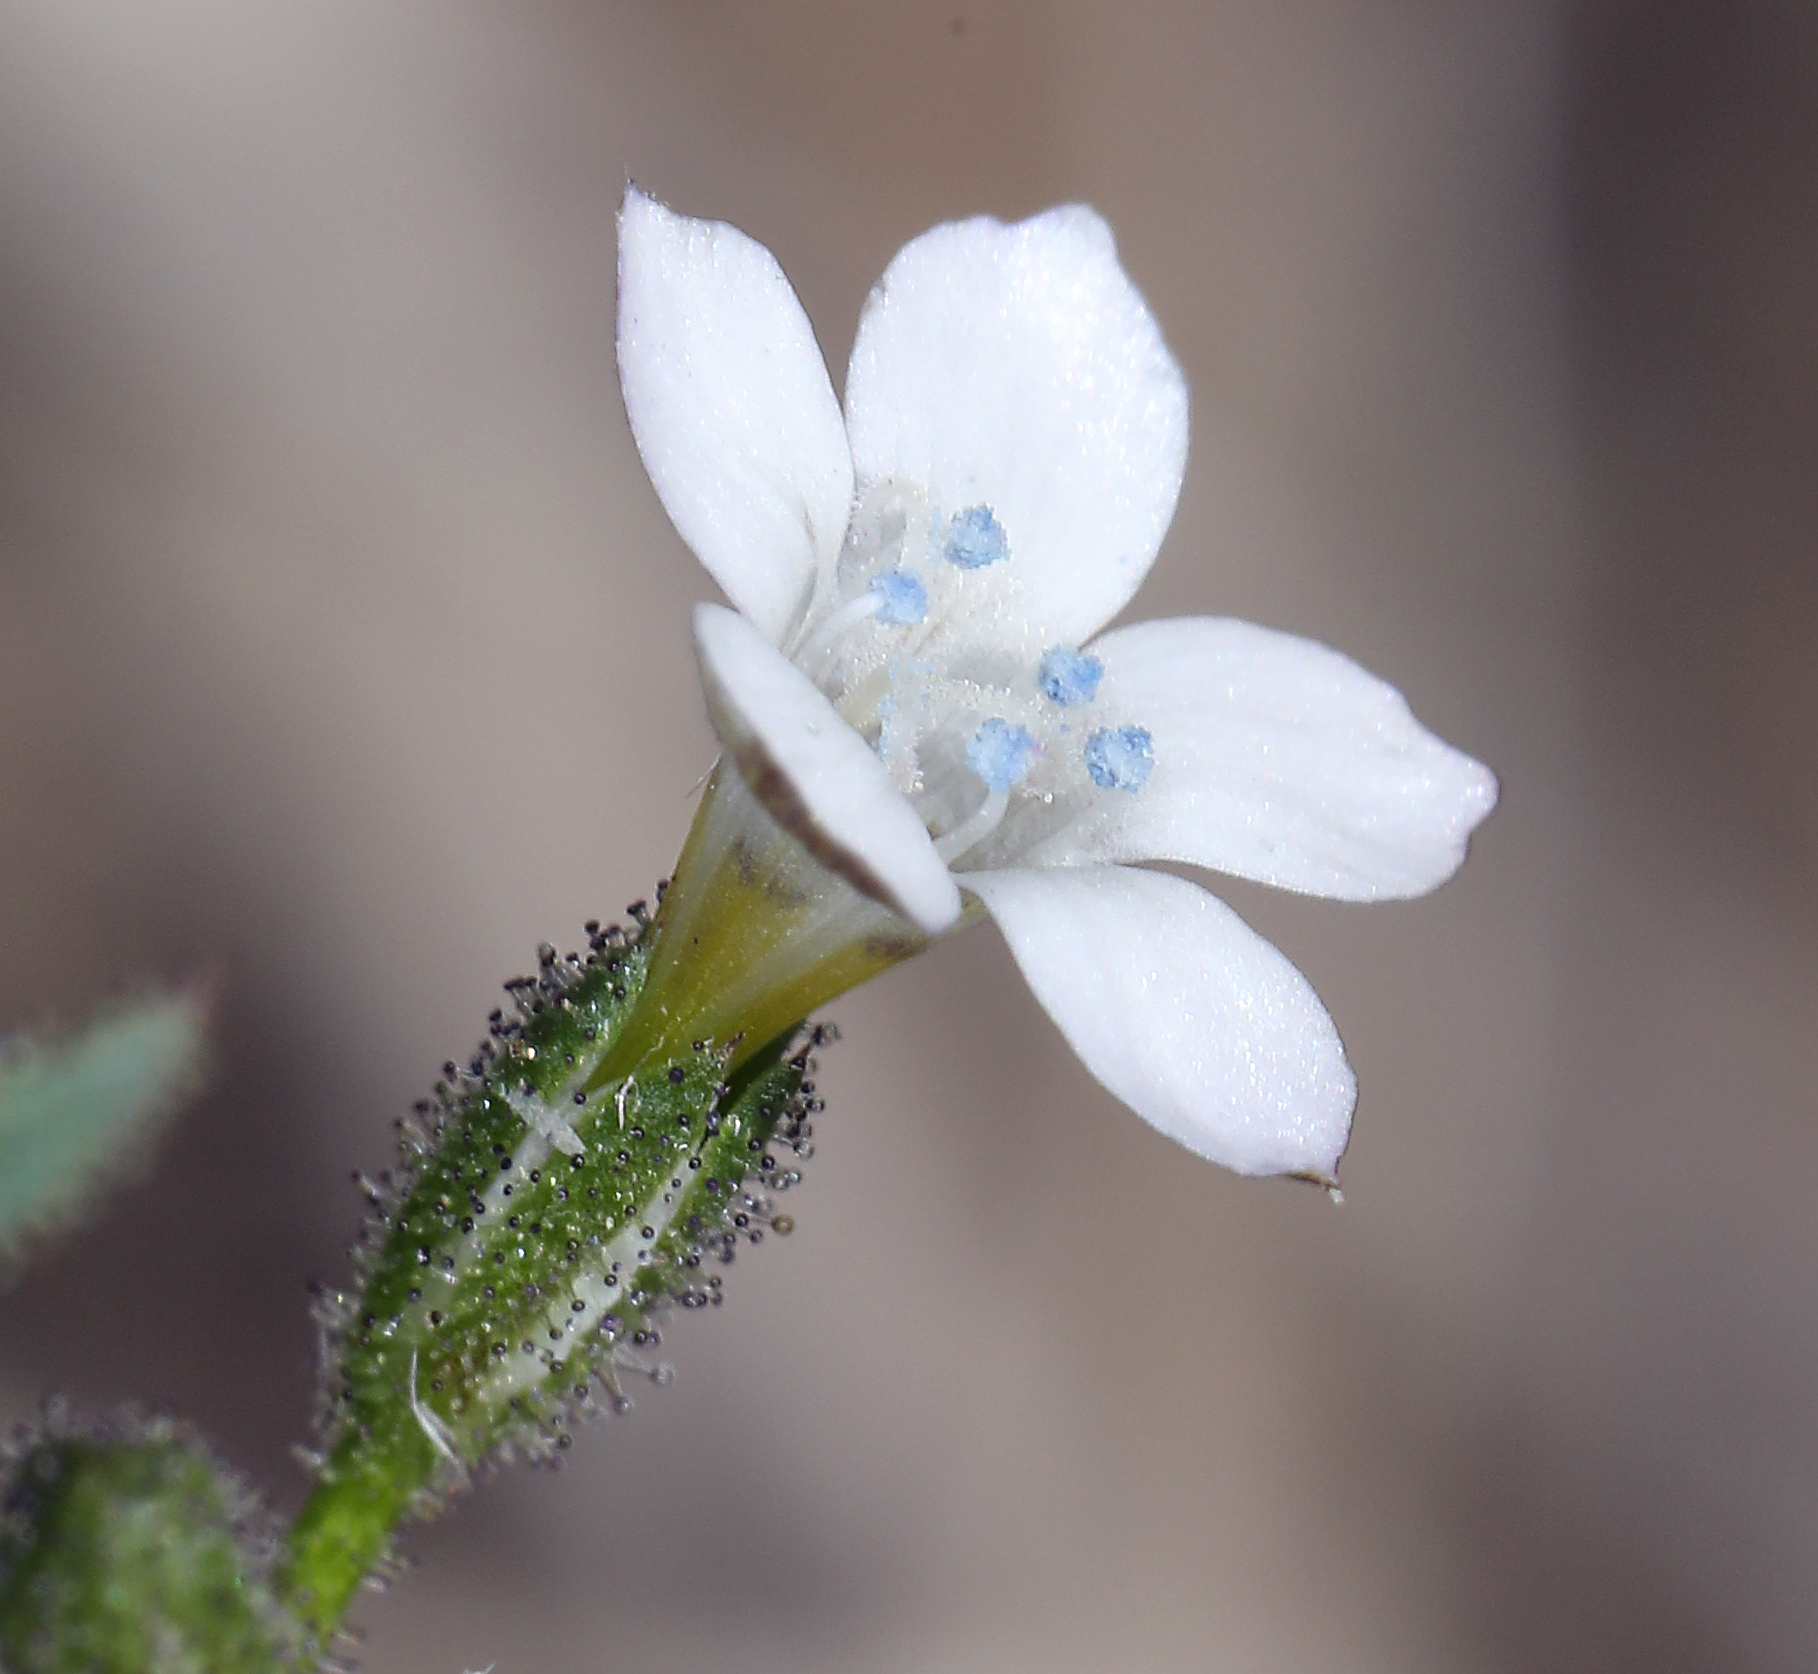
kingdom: Plantae
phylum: Tracheophyta
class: Magnoliopsida
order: Ericales
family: Polemoniaceae
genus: Gilia
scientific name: Gilia stellata
